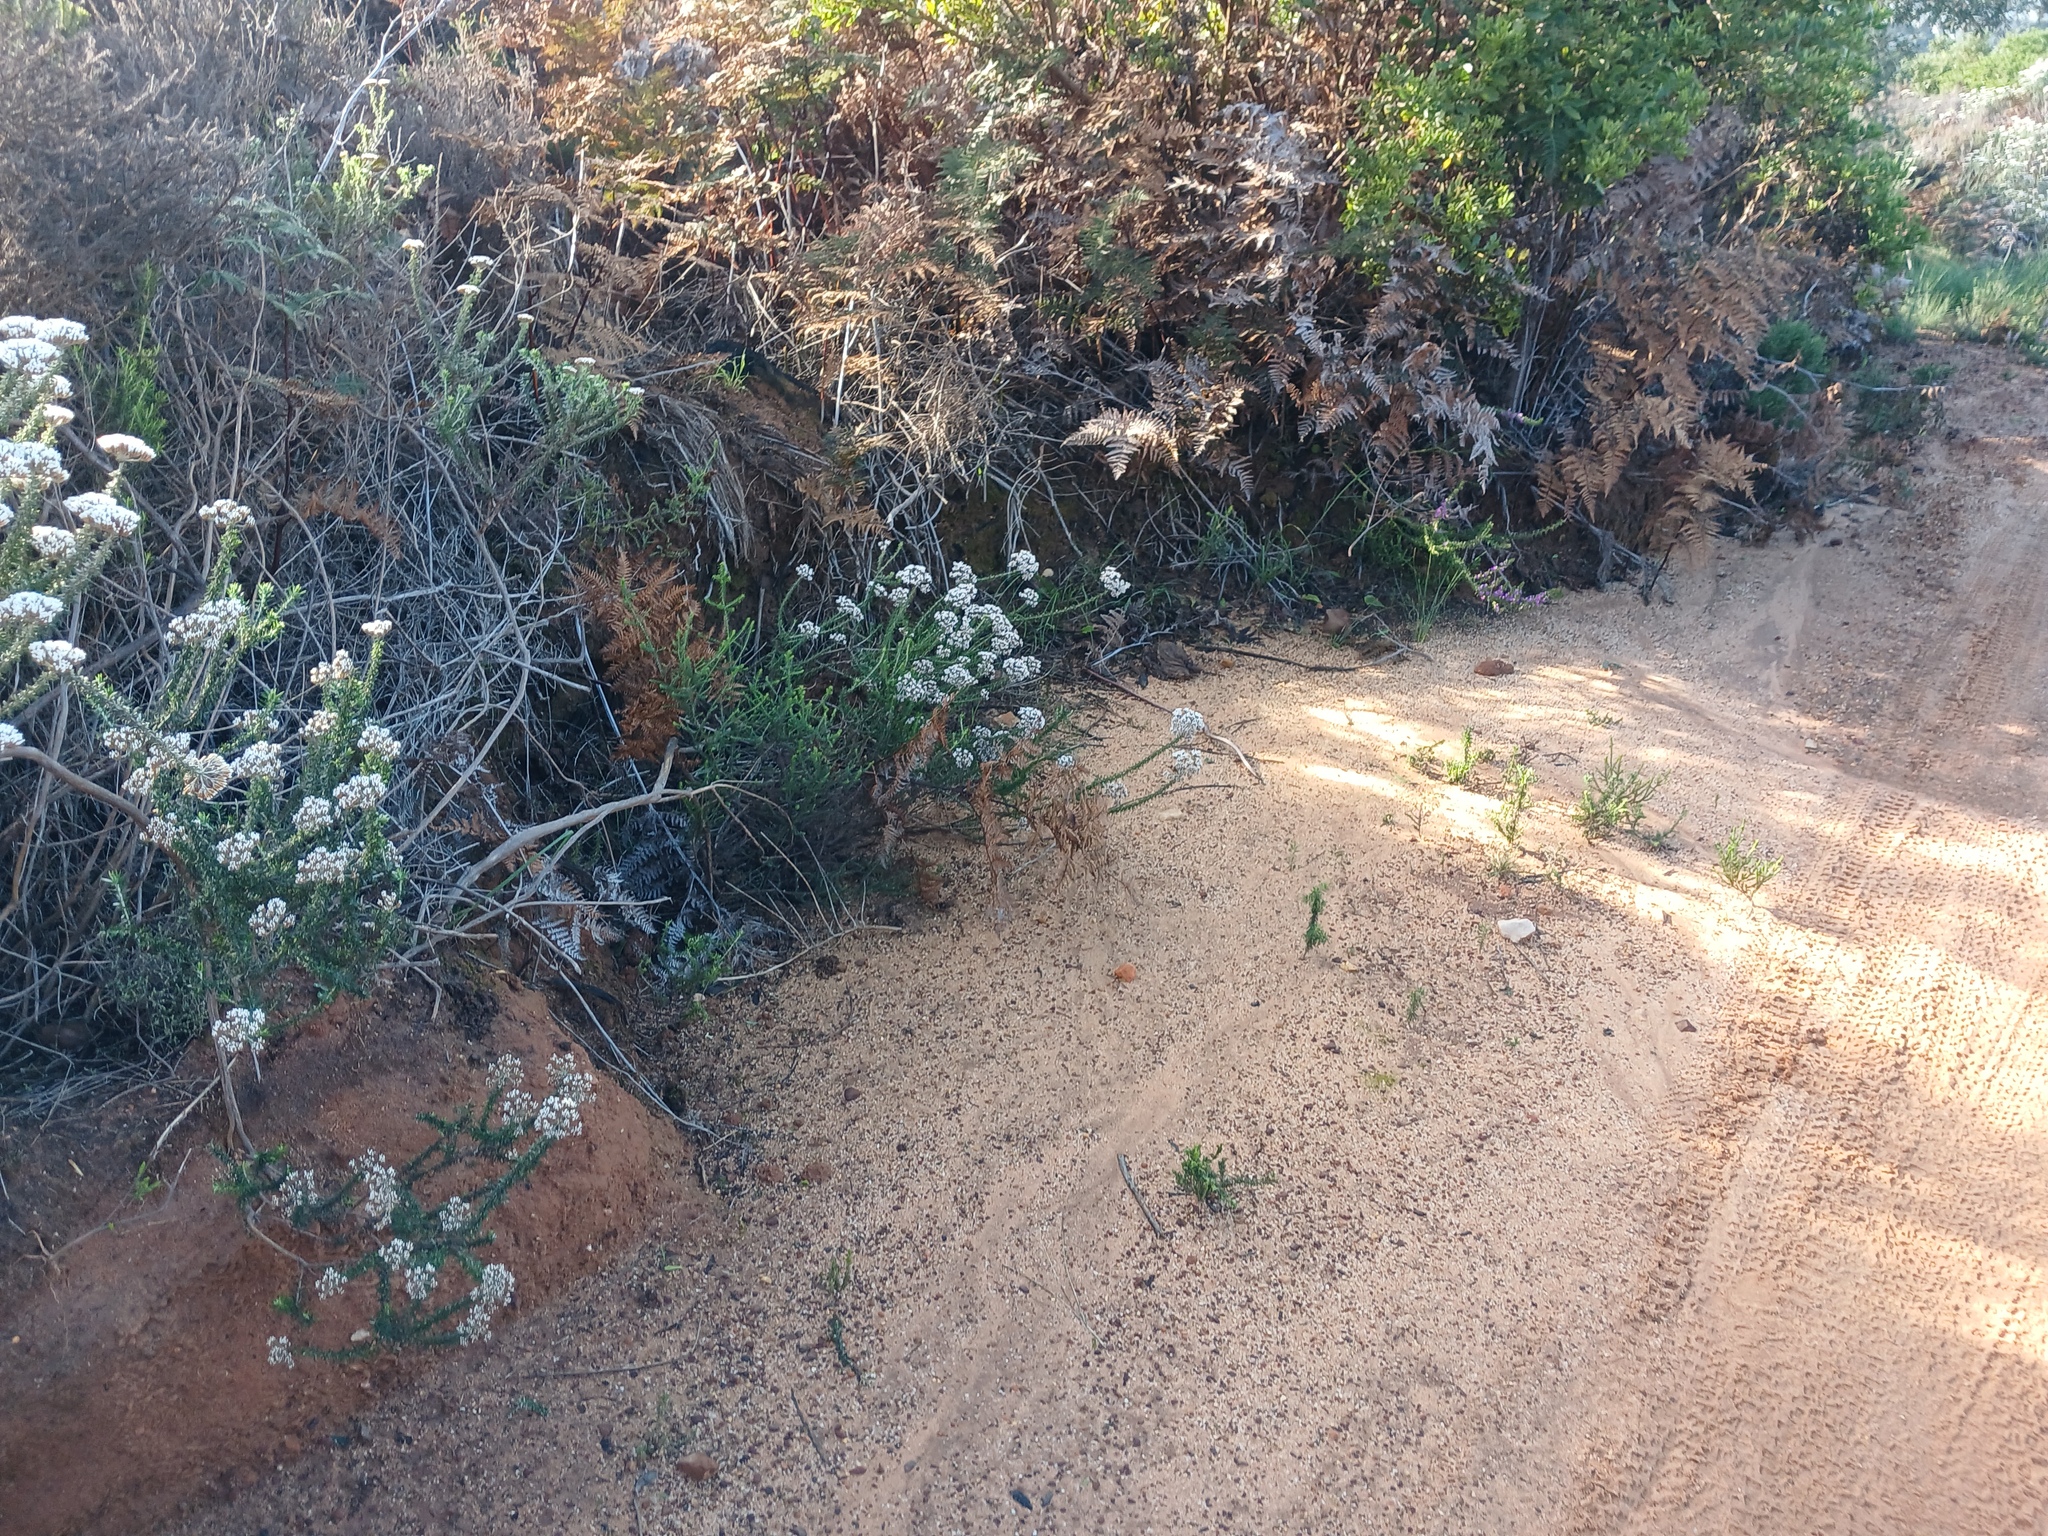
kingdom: Plantae
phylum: Tracheophyta
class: Magnoliopsida
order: Asterales
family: Asteraceae
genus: Metalasia
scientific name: Metalasia densa
